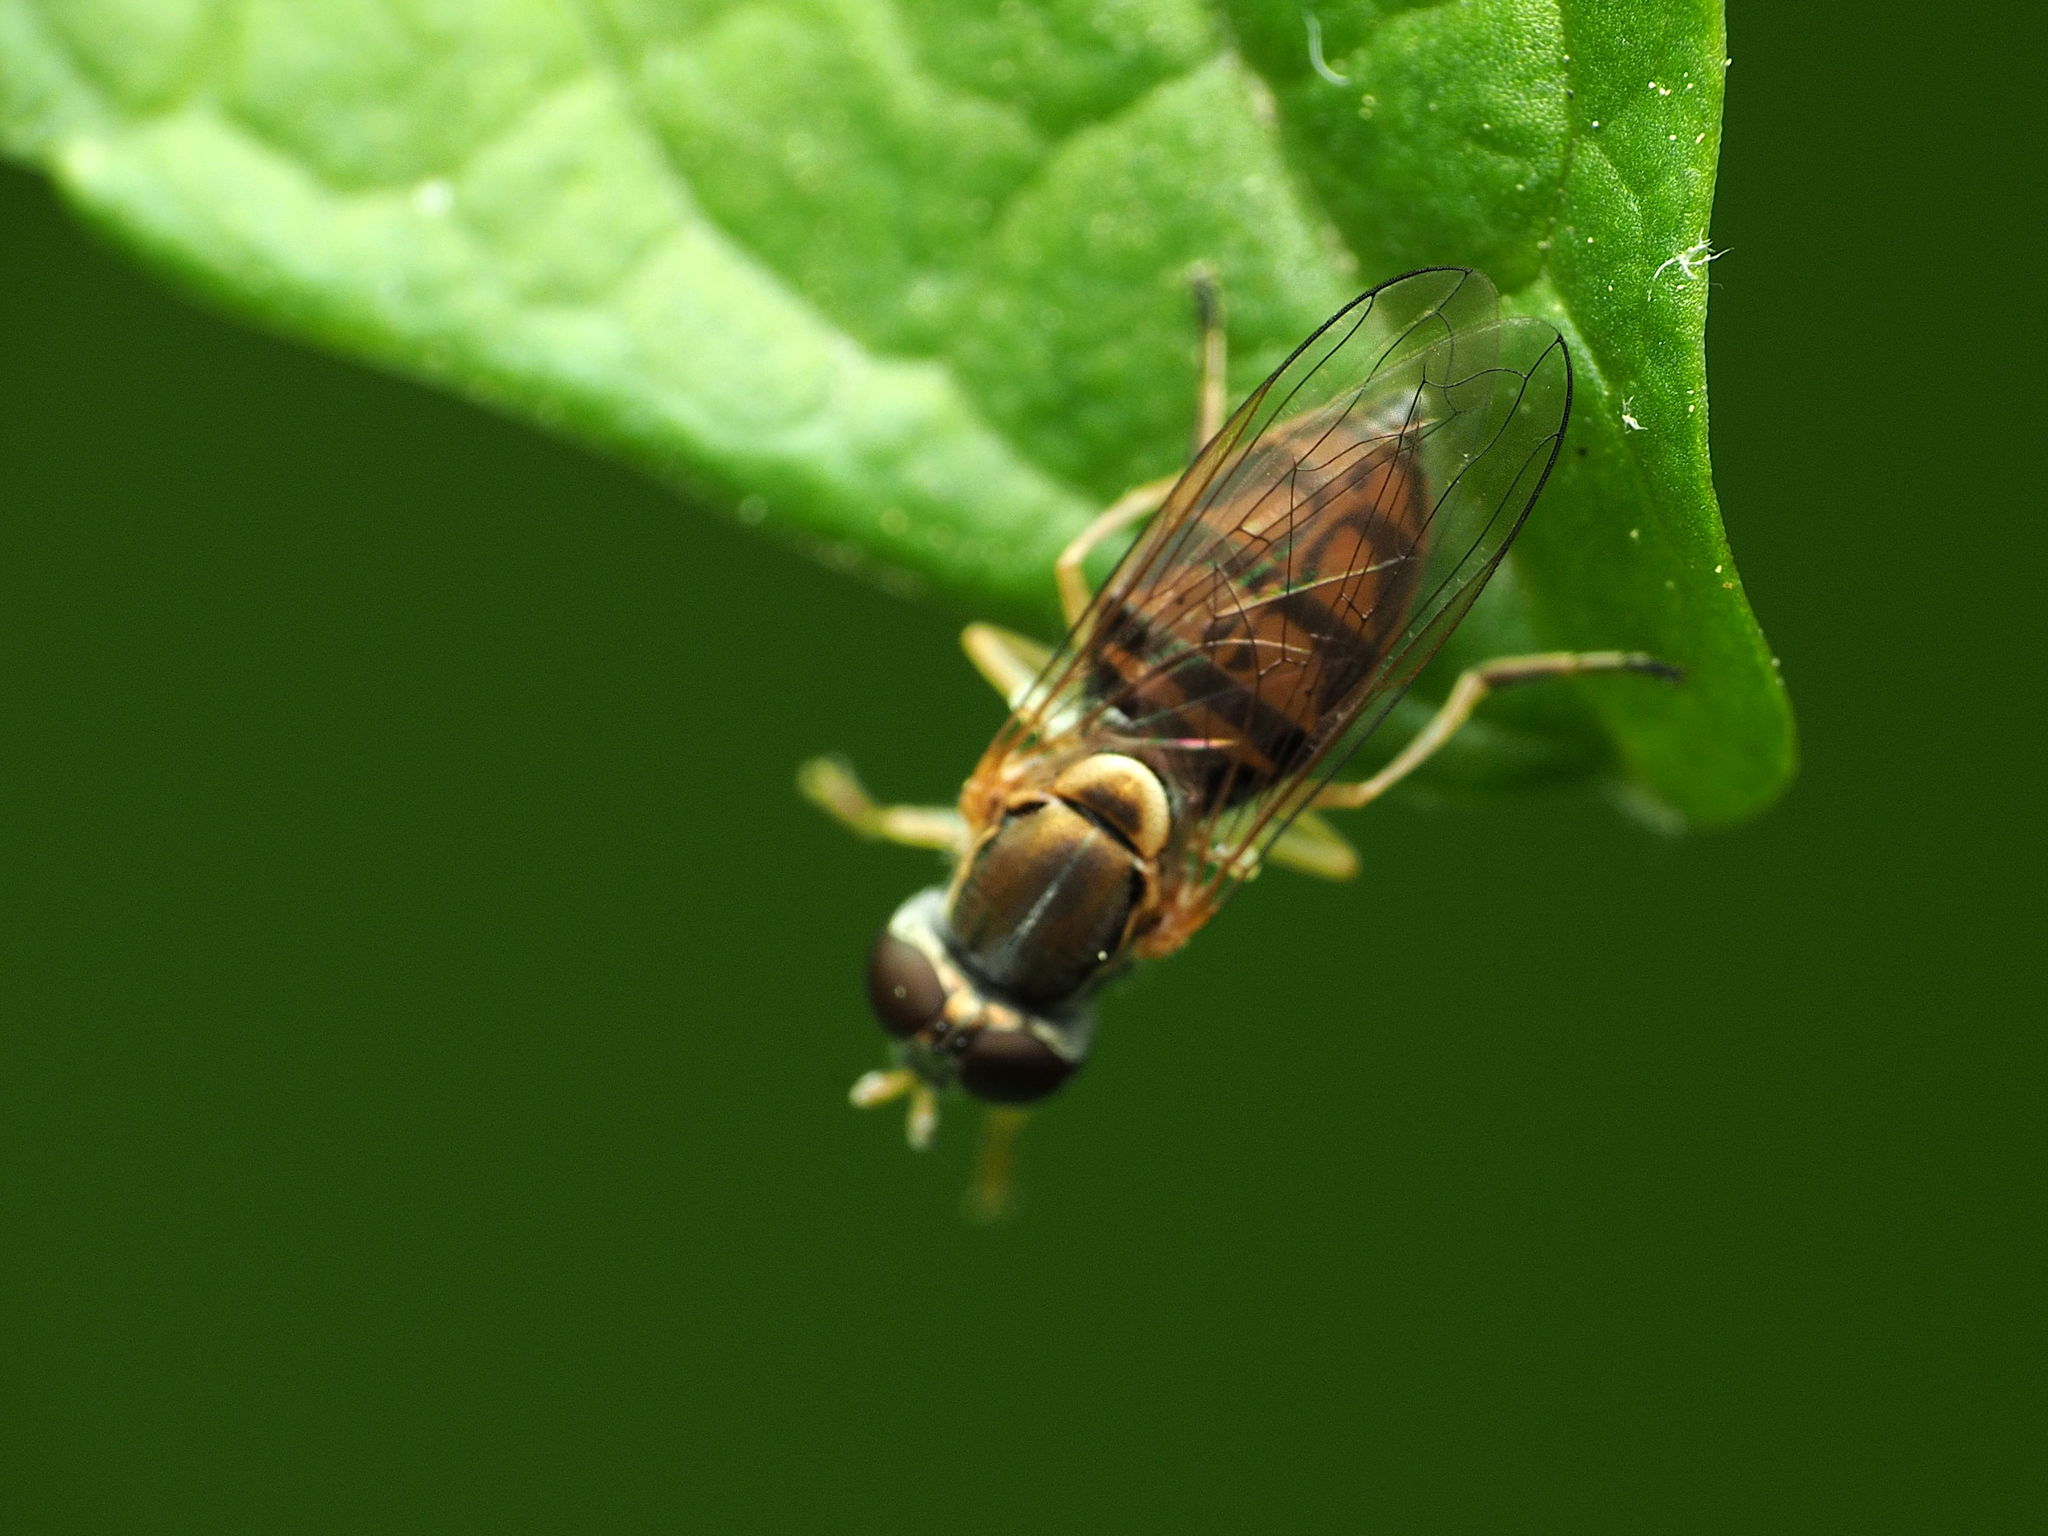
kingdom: Animalia
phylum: Arthropoda
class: Insecta
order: Diptera
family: Syrphidae
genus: Toxomerus
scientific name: Toxomerus marginatus
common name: Syrphid fly
